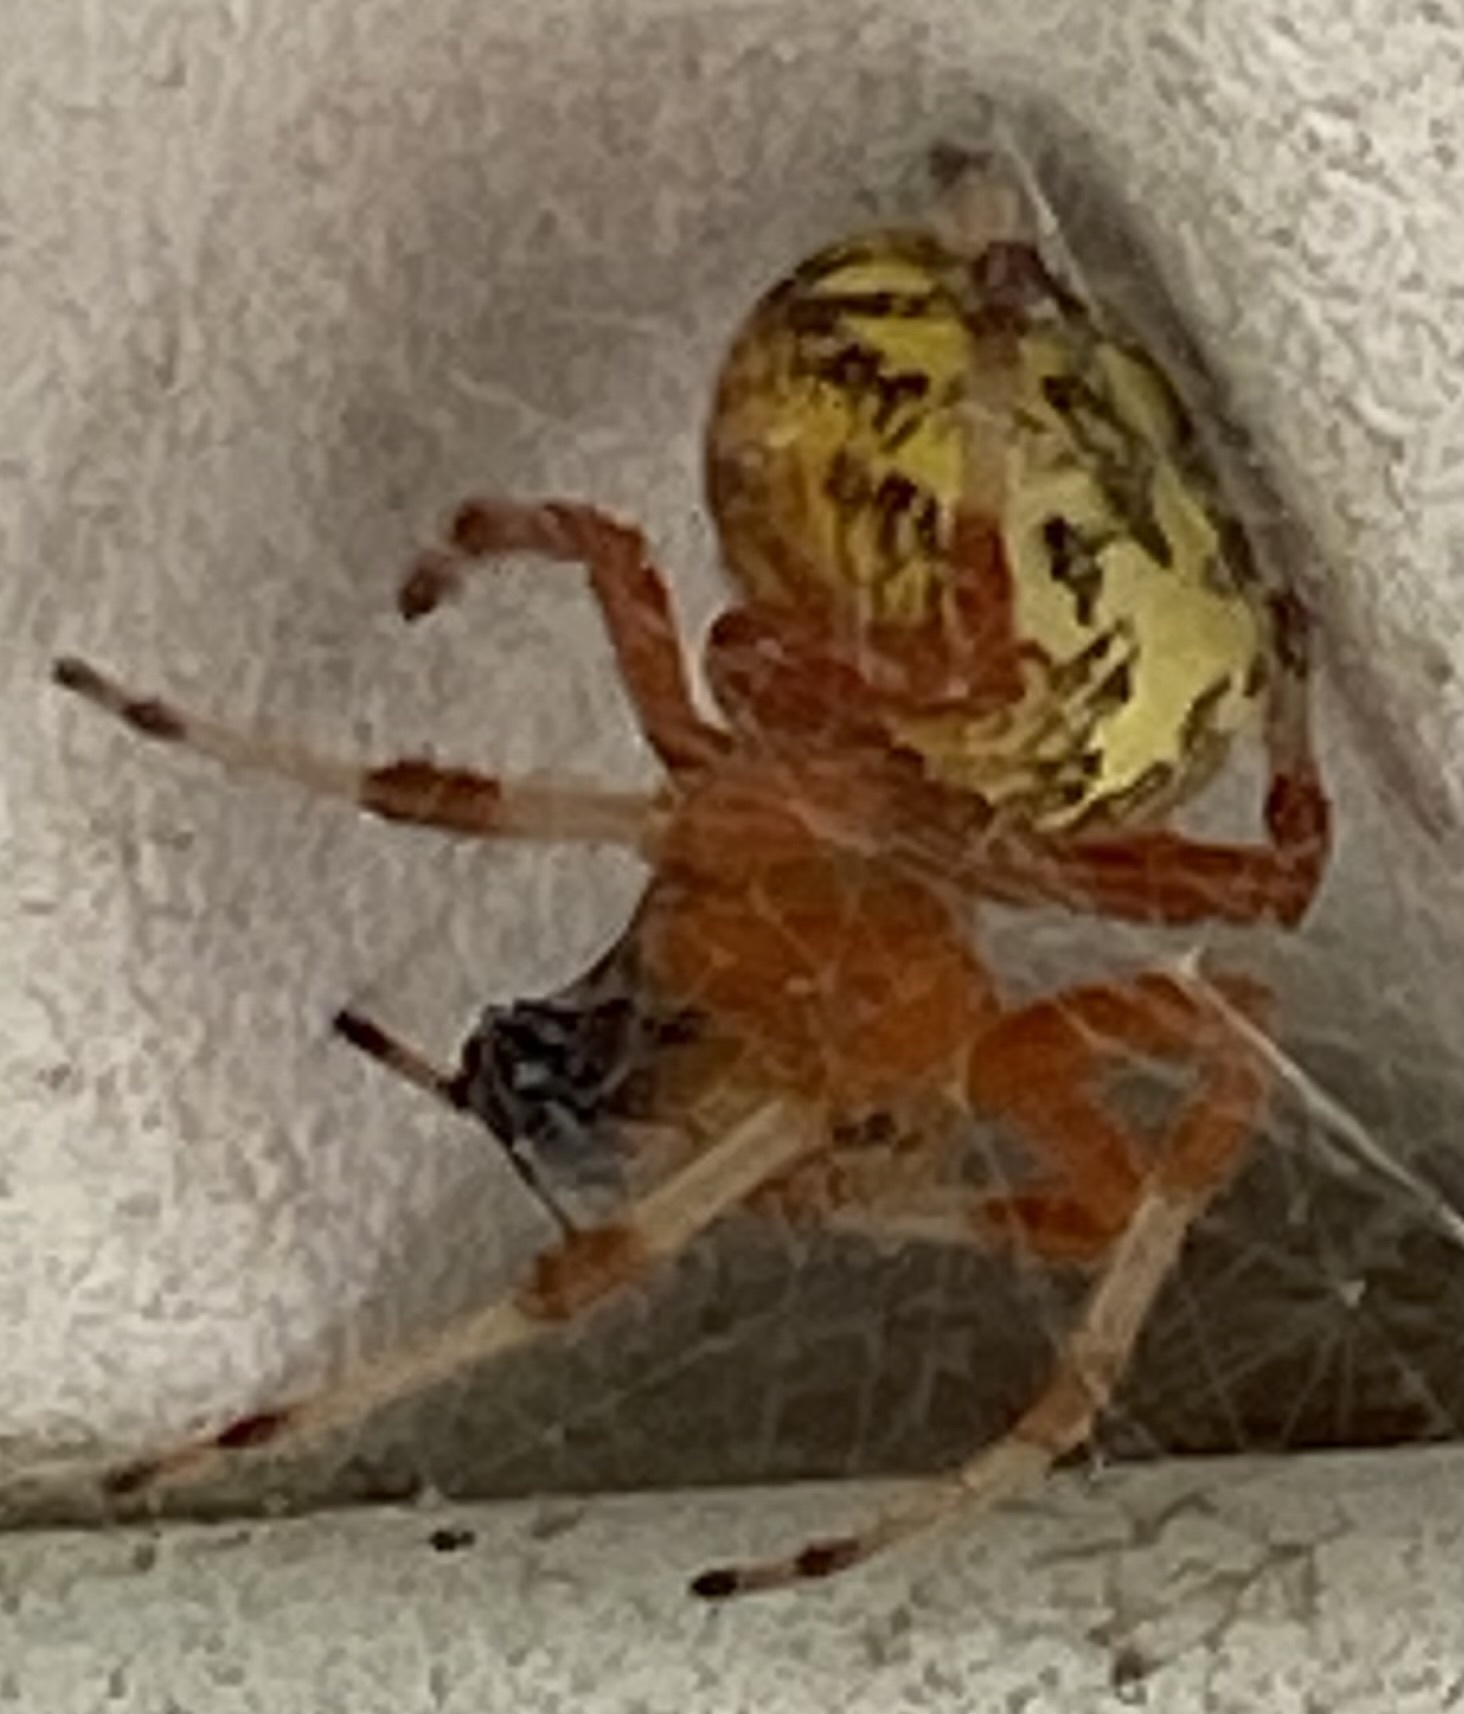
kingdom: Animalia
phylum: Arthropoda
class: Arachnida
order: Araneae
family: Araneidae
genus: Araneus
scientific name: Araneus marmoreus
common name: Marbled orbweaver
